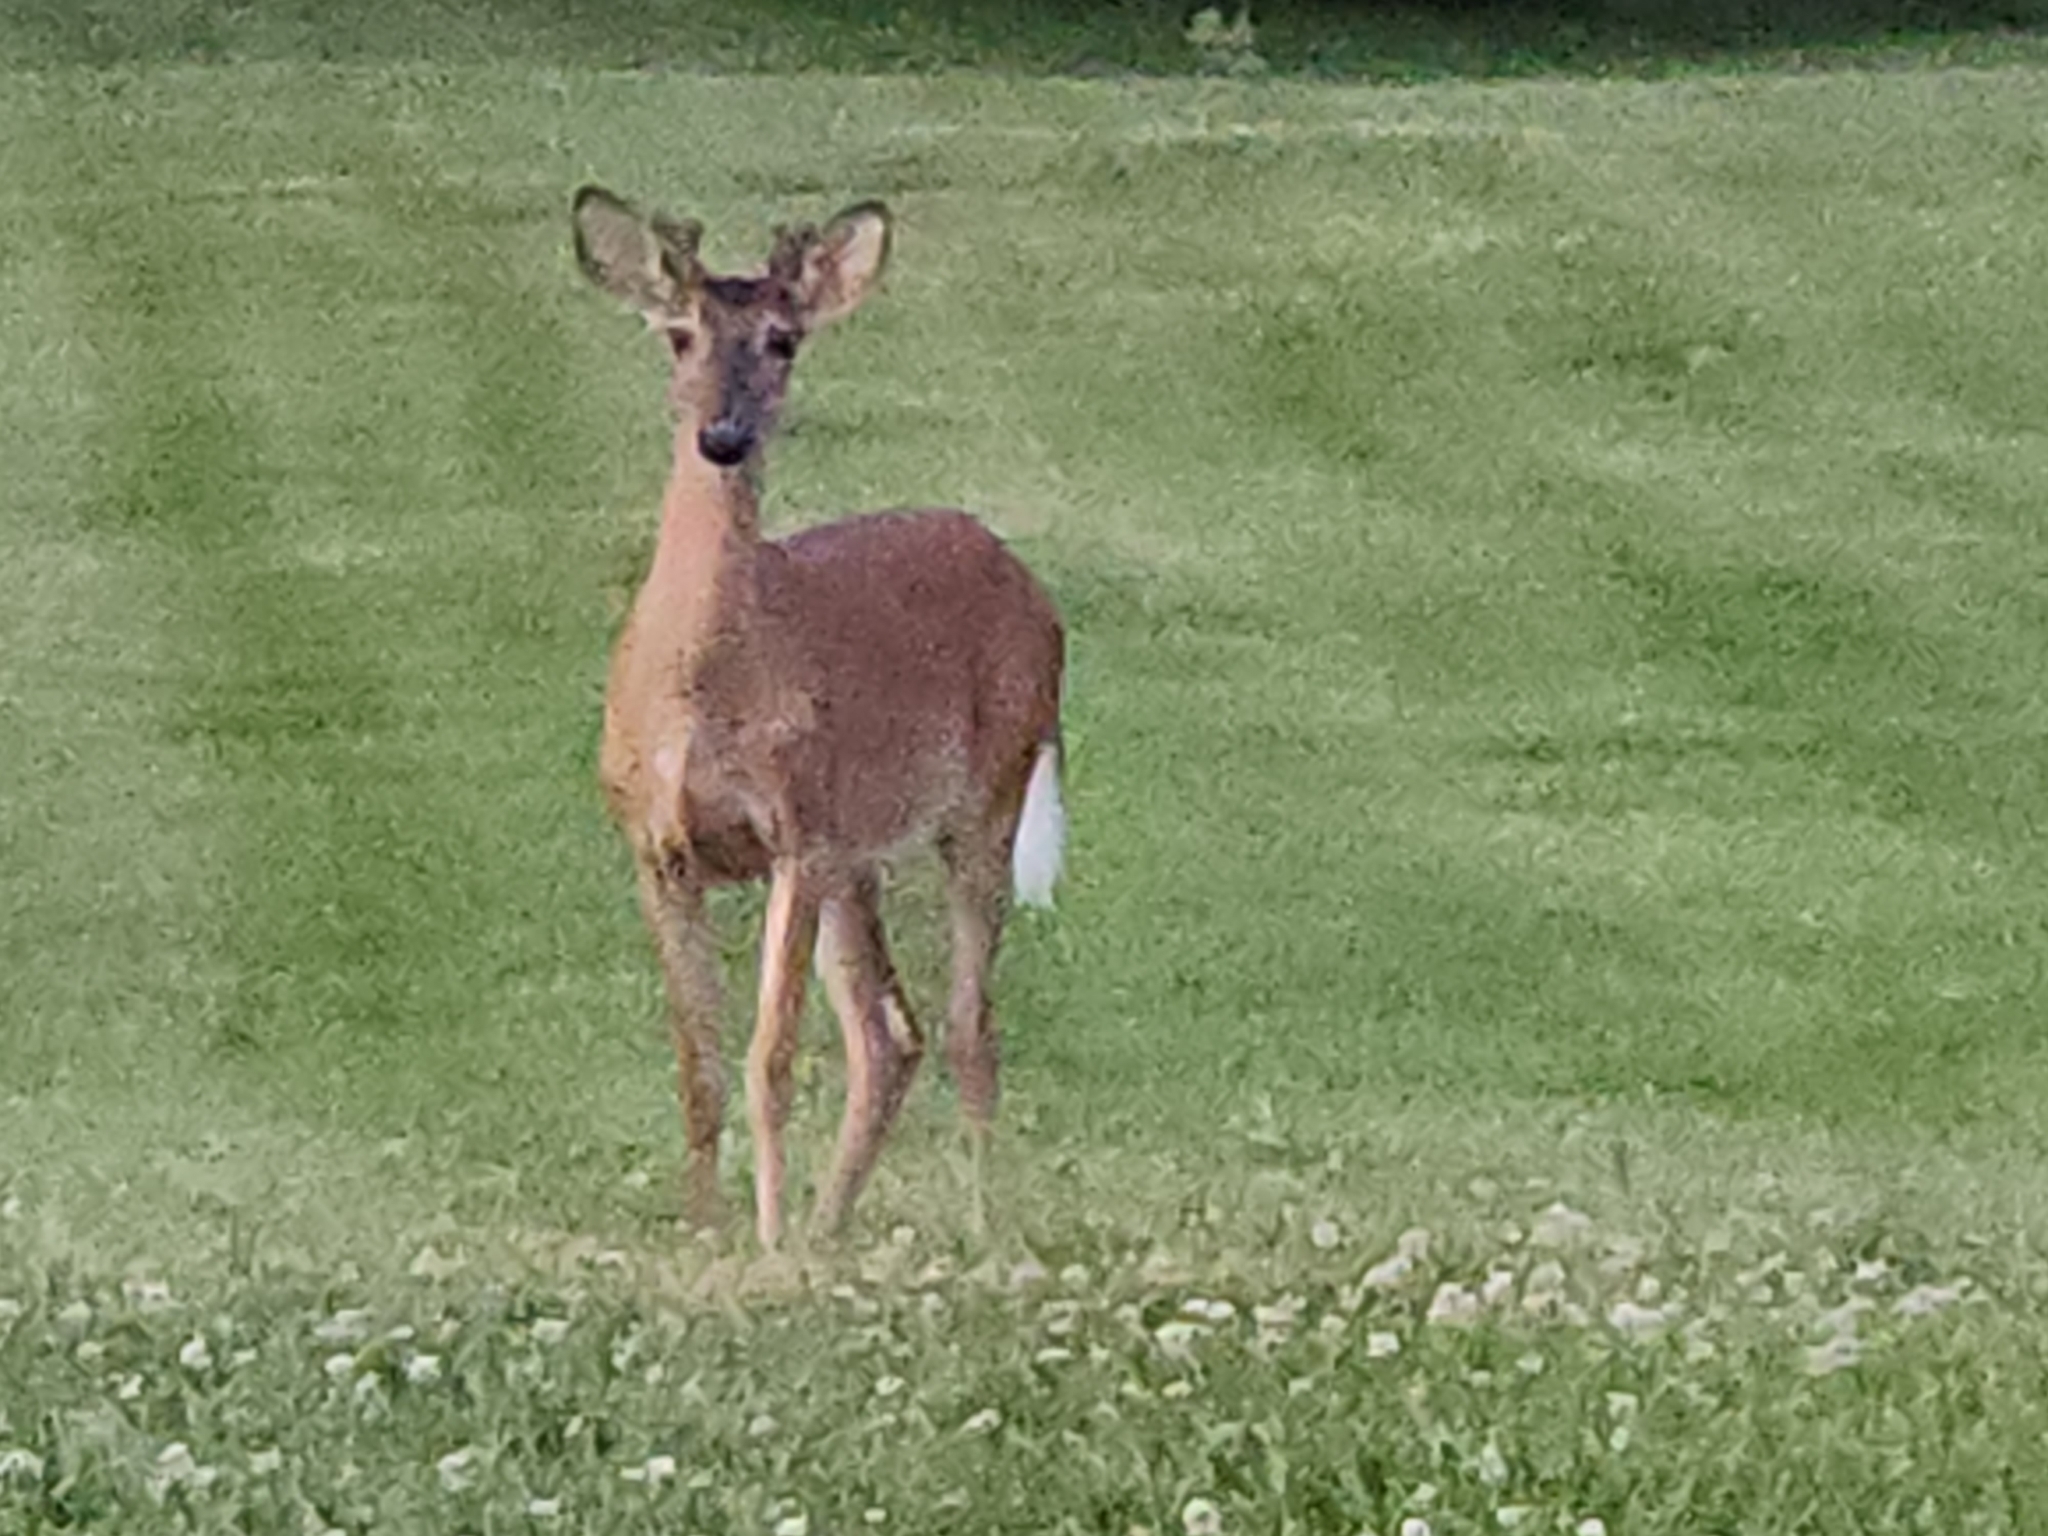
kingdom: Animalia
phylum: Chordata
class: Mammalia
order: Artiodactyla
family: Cervidae
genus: Odocoileus
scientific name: Odocoileus virginianus
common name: White-tailed deer
